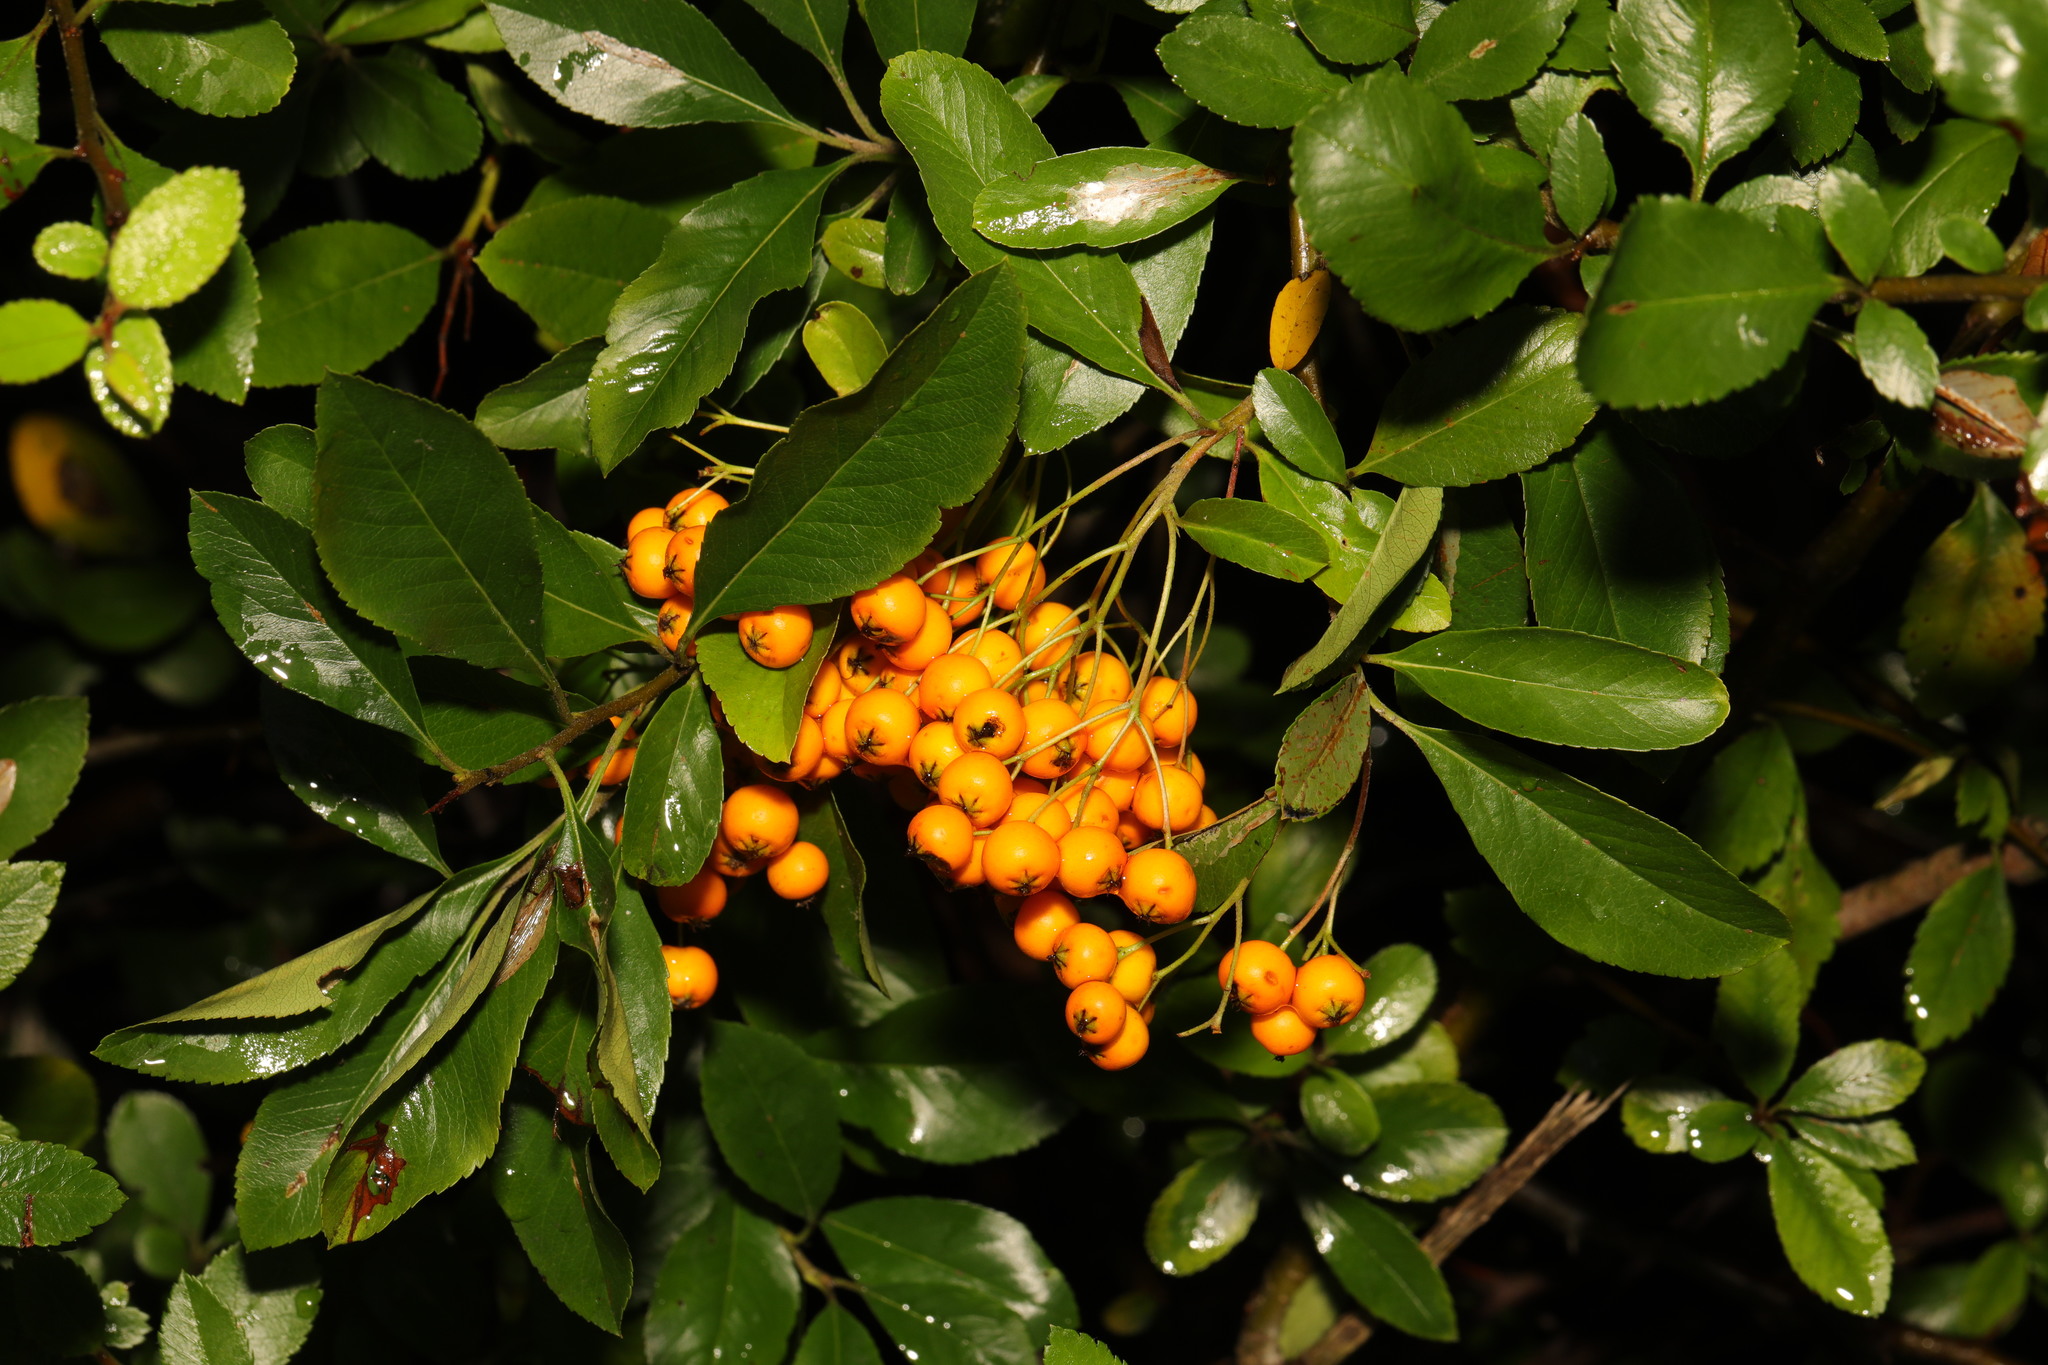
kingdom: Plantae
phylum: Tracheophyta
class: Magnoliopsida
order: Rosales
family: Rosaceae
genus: Pyracantha
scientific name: Pyracantha coccinea
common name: Firethorn
